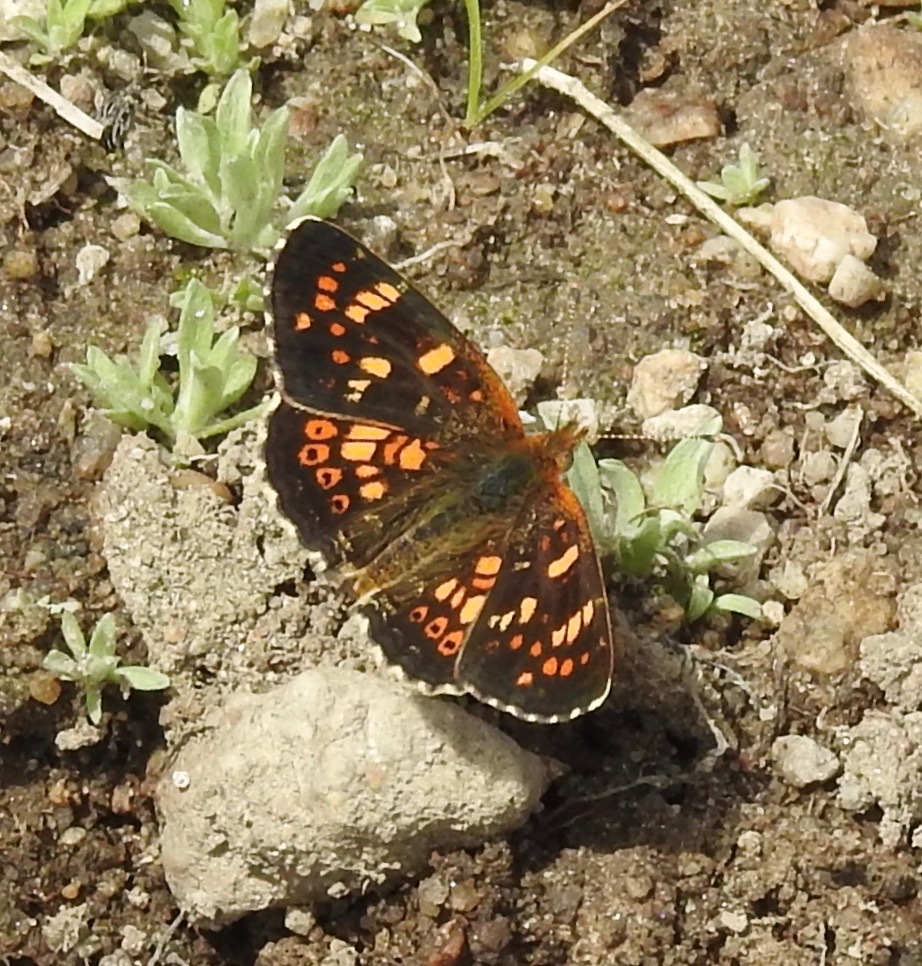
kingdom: Animalia
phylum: Arthropoda
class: Insecta
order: Lepidoptera
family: Nymphalidae
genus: Phyciodes
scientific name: Phyciodes tharos
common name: Pearl crescent
